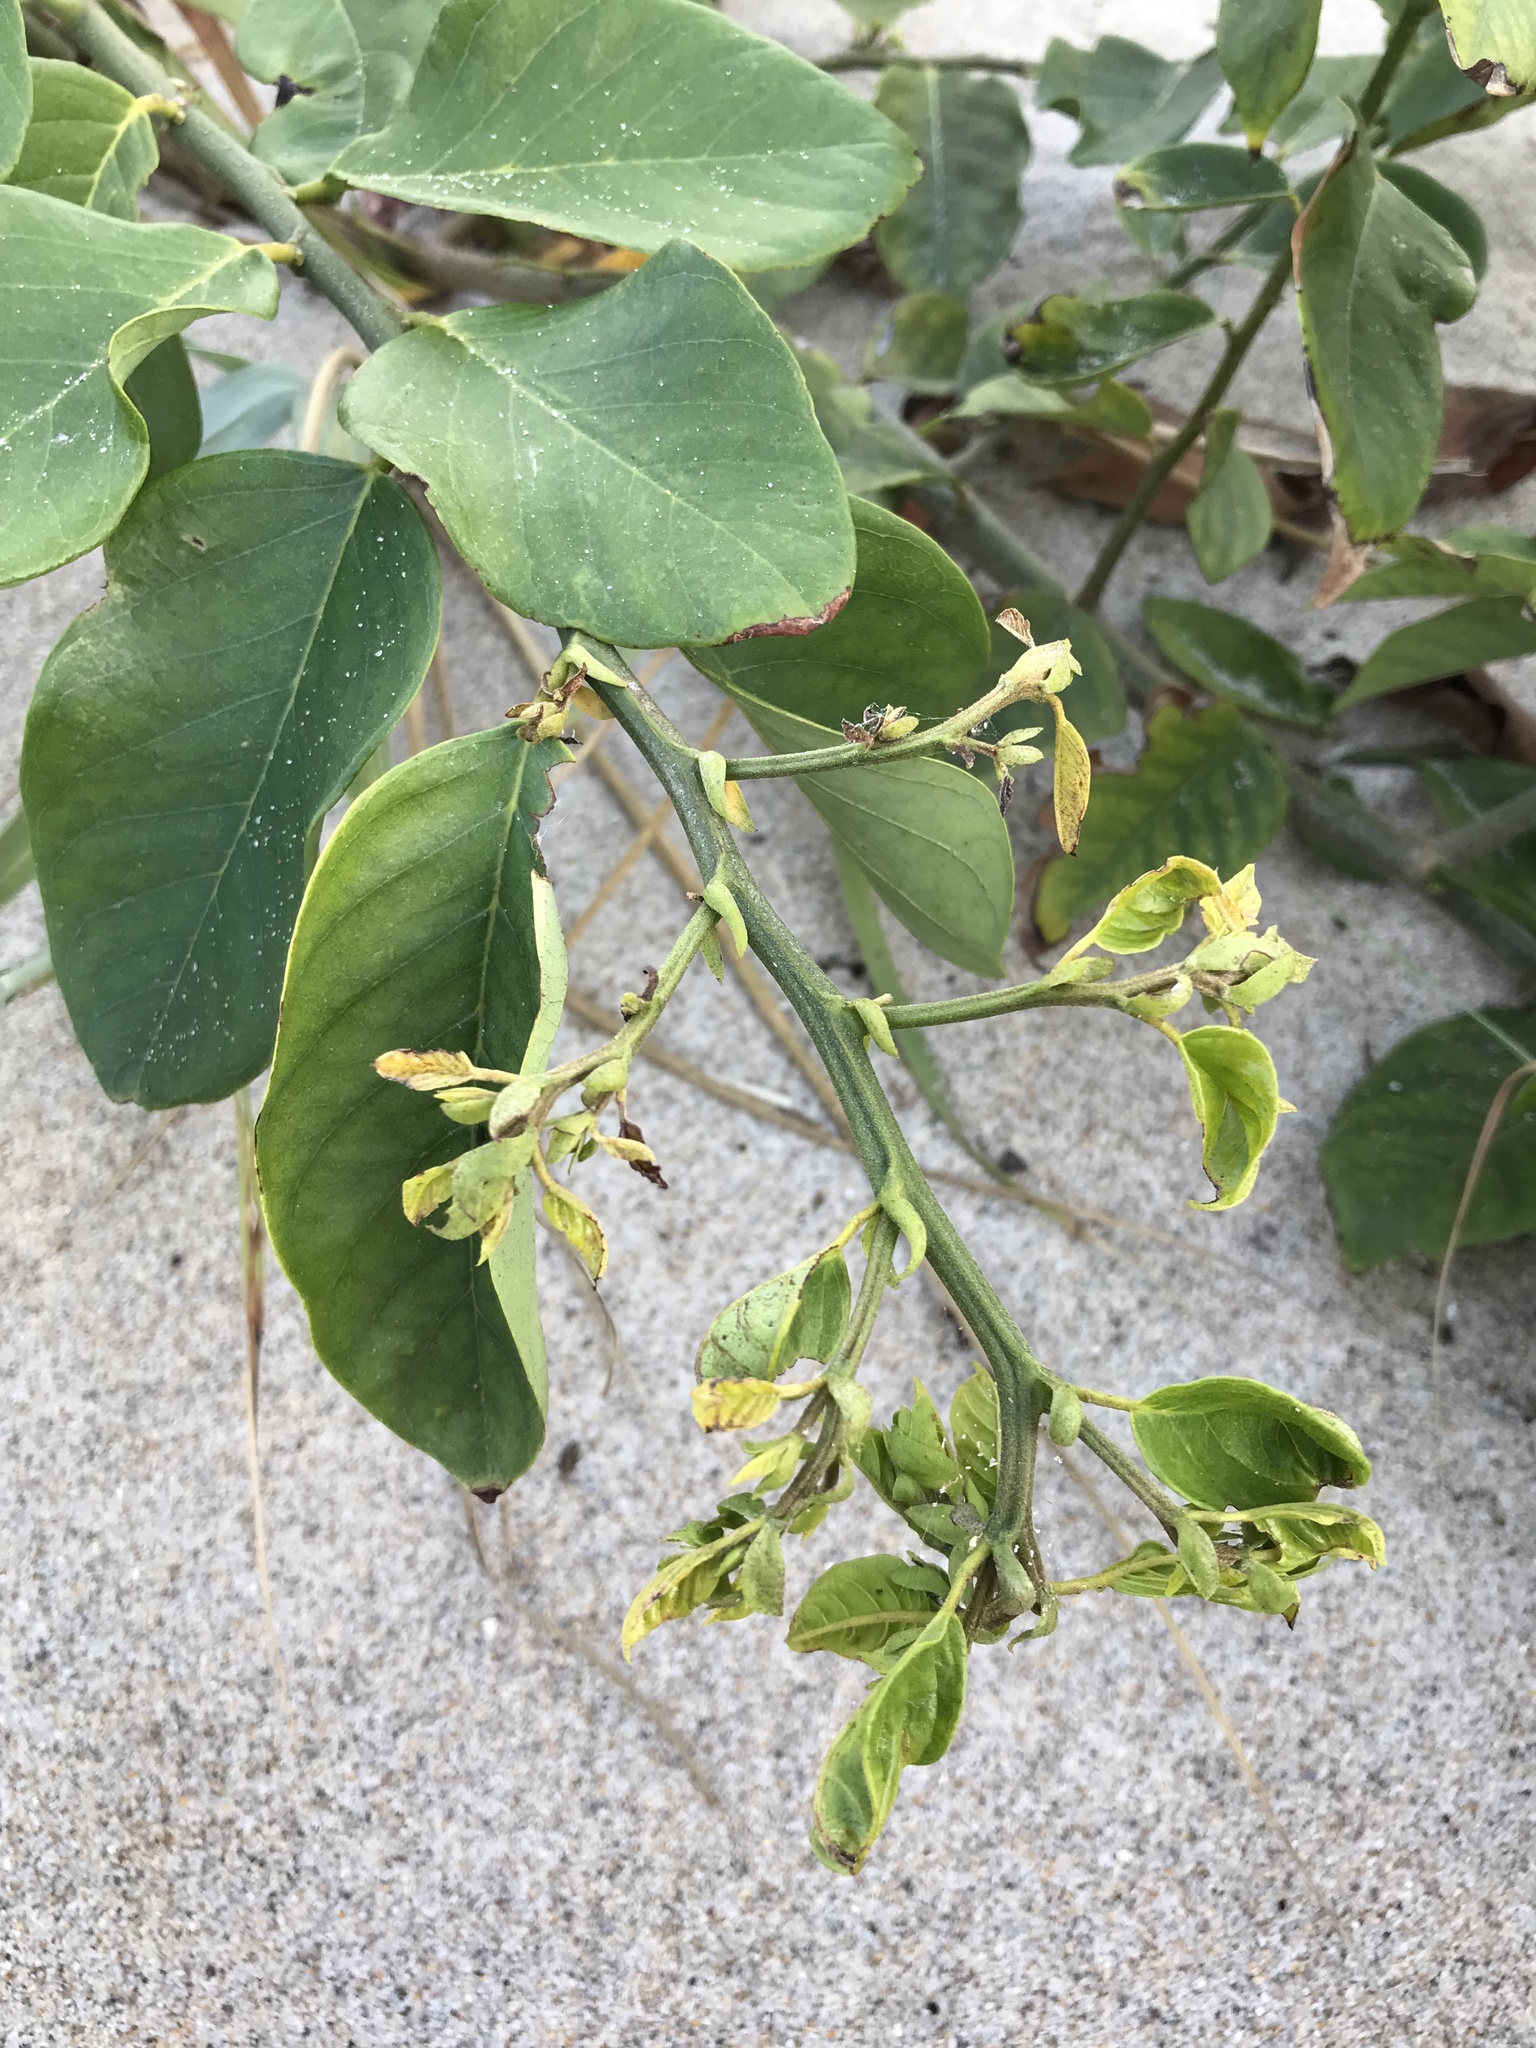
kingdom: Plantae
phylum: Tracheophyta
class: Magnoliopsida
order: Fabales
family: Fabaceae
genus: Dalbergia
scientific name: Dalbergia ecastaphyllum
